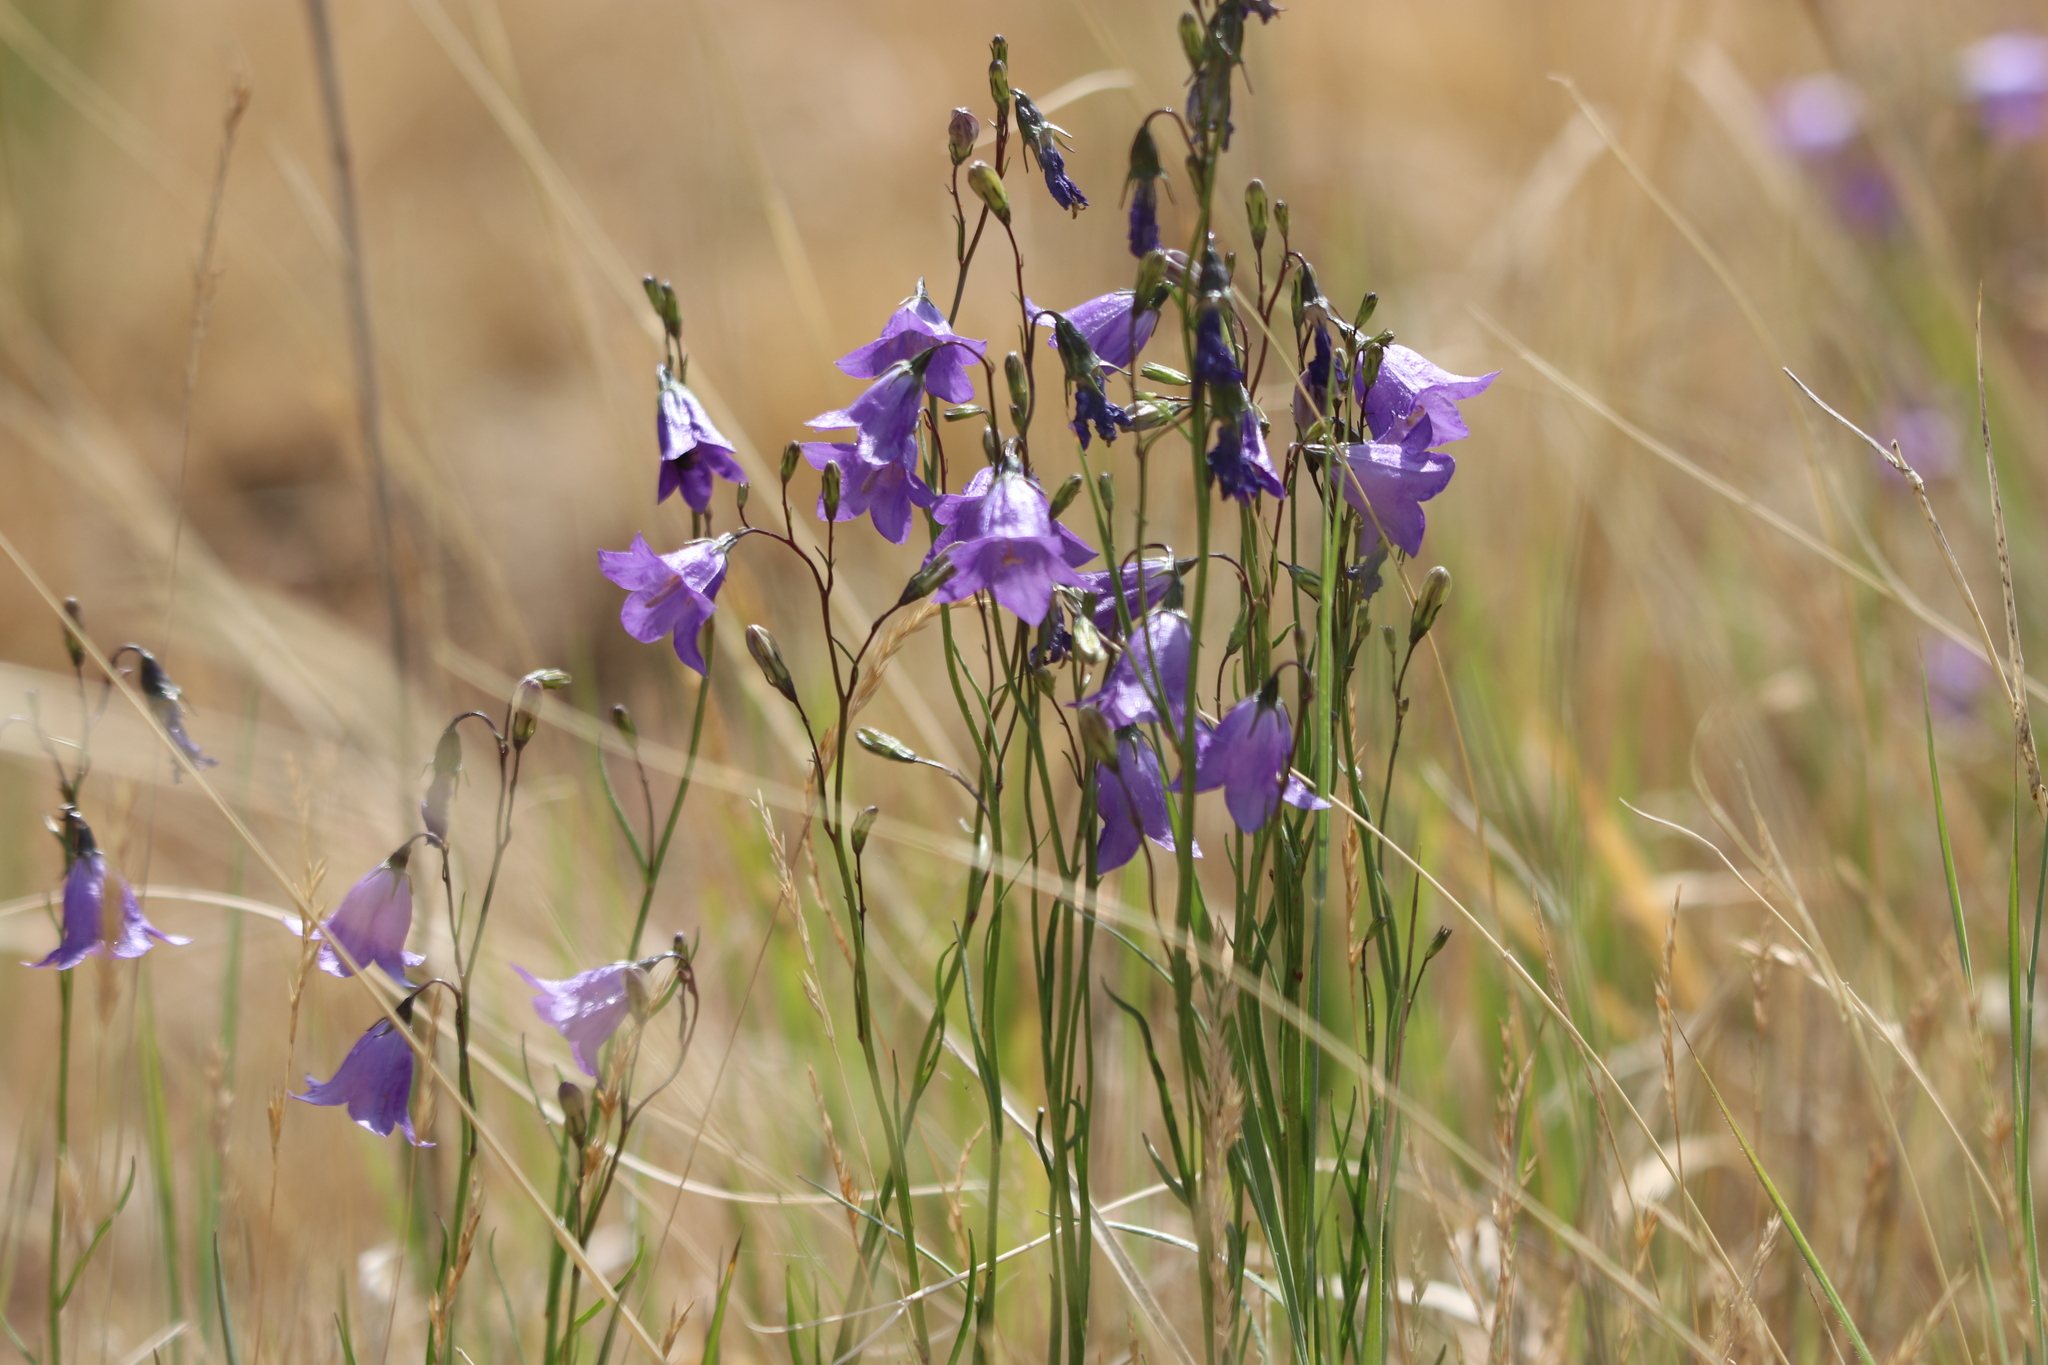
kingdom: Plantae
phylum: Tracheophyta
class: Magnoliopsida
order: Asterales
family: Campanulaceae
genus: Campanula
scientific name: Campanula petiolata
